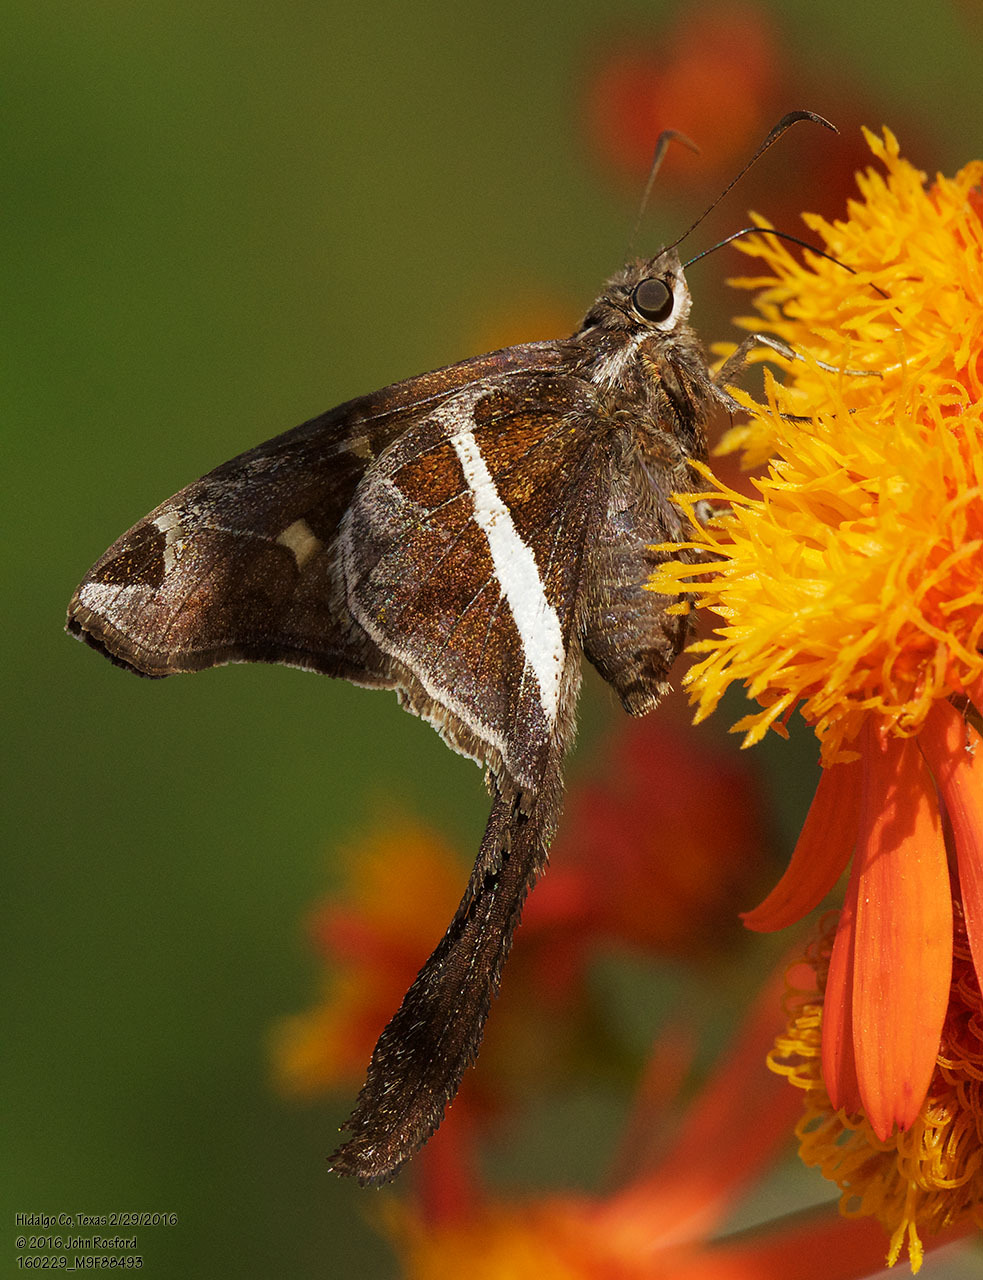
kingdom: Animalia
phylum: Arthropoda
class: Insecta
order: Lepidoptera
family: Hesperiidae
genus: Chioides
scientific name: Chioides catillus
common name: Silverbanded skipper
